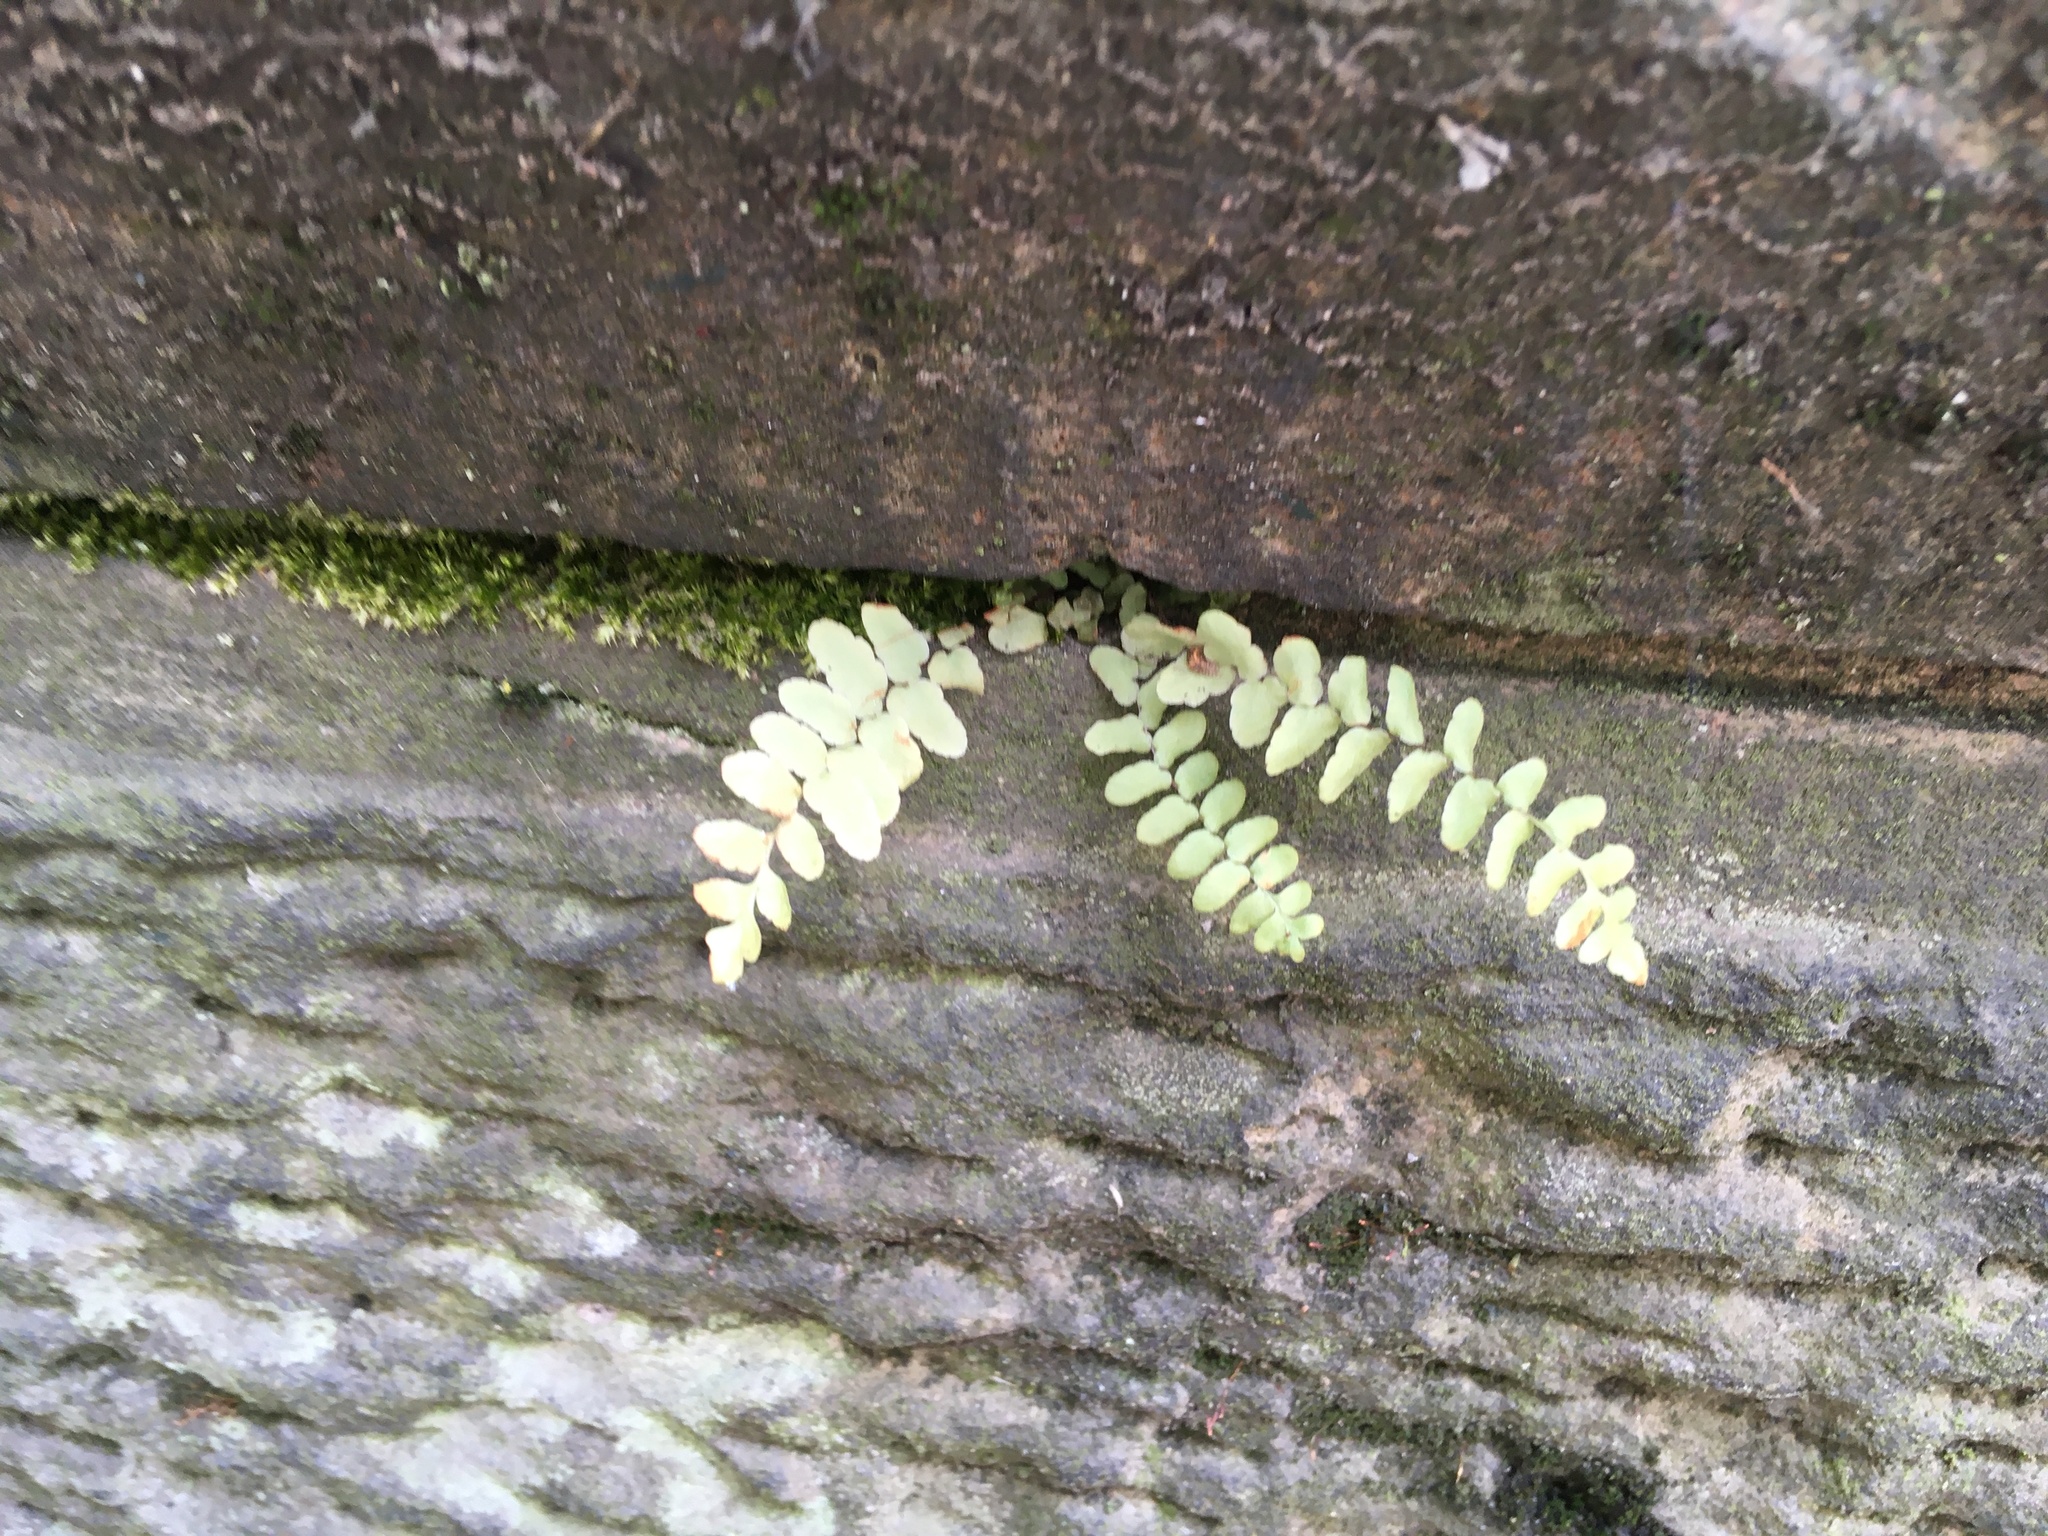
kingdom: Plantae
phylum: Tracheophyta
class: Polypodiopsida
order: Polypodiales
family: Aspleniaceae
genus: Asplenium
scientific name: Asplenium platyneuron
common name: Ebony spleenwort
